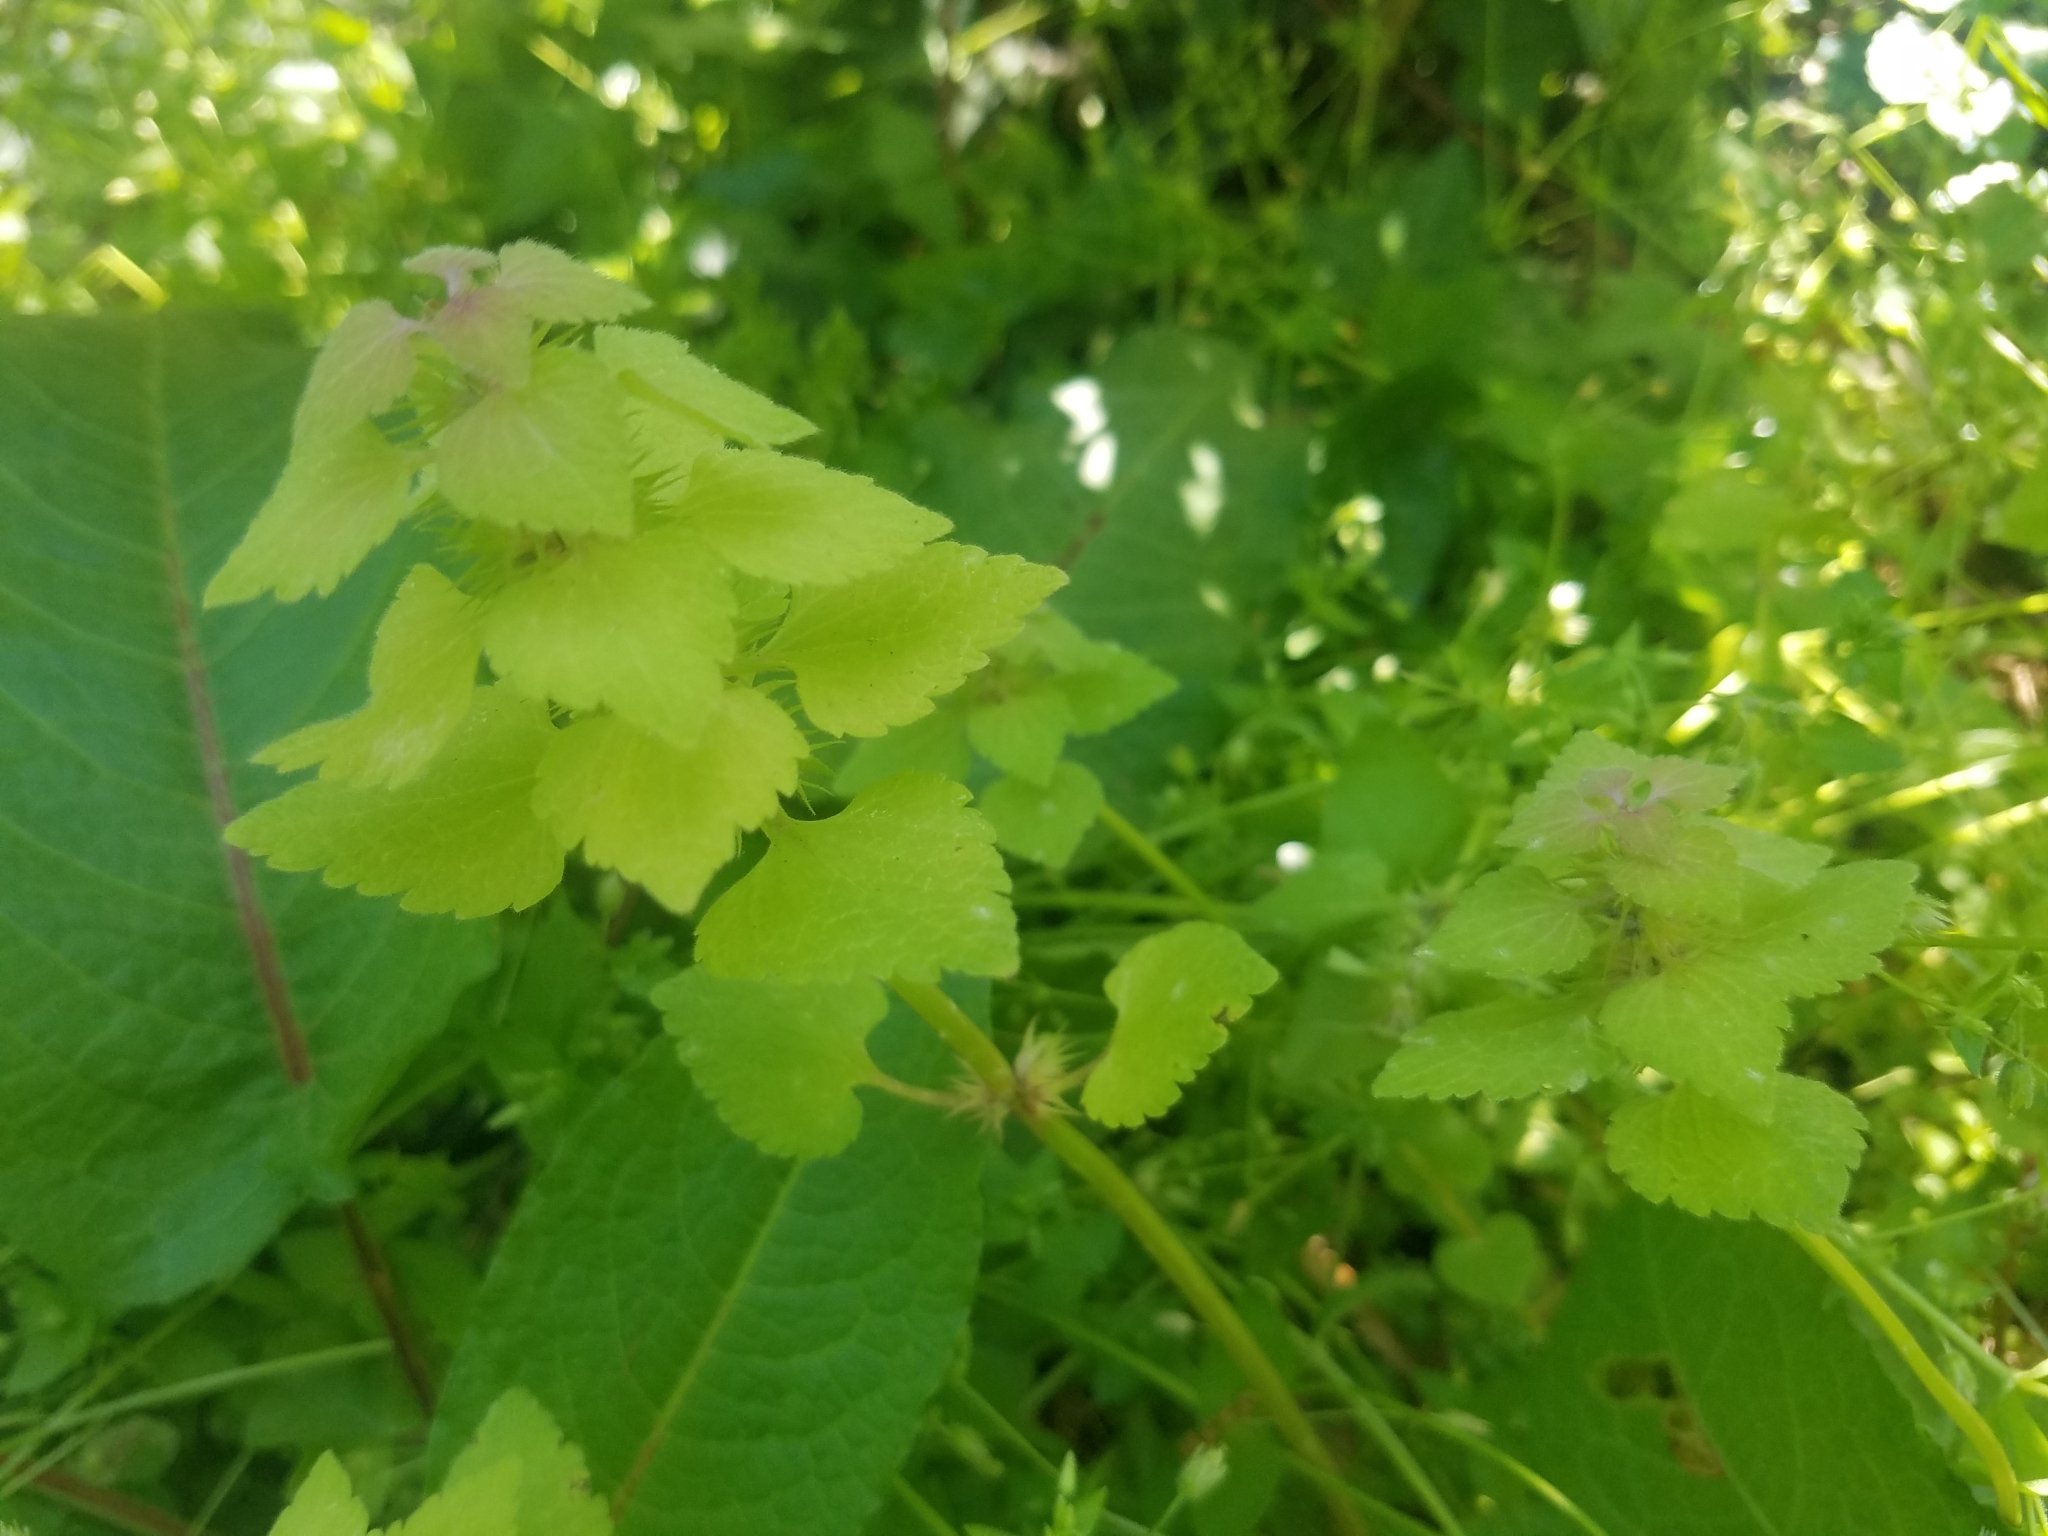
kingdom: Plantae
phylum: Tracheophyta
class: Magnoliopsida
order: Lamiales
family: Lamiaceae
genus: Lamium
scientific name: Lamium purpureum
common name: Red dead-nettle
